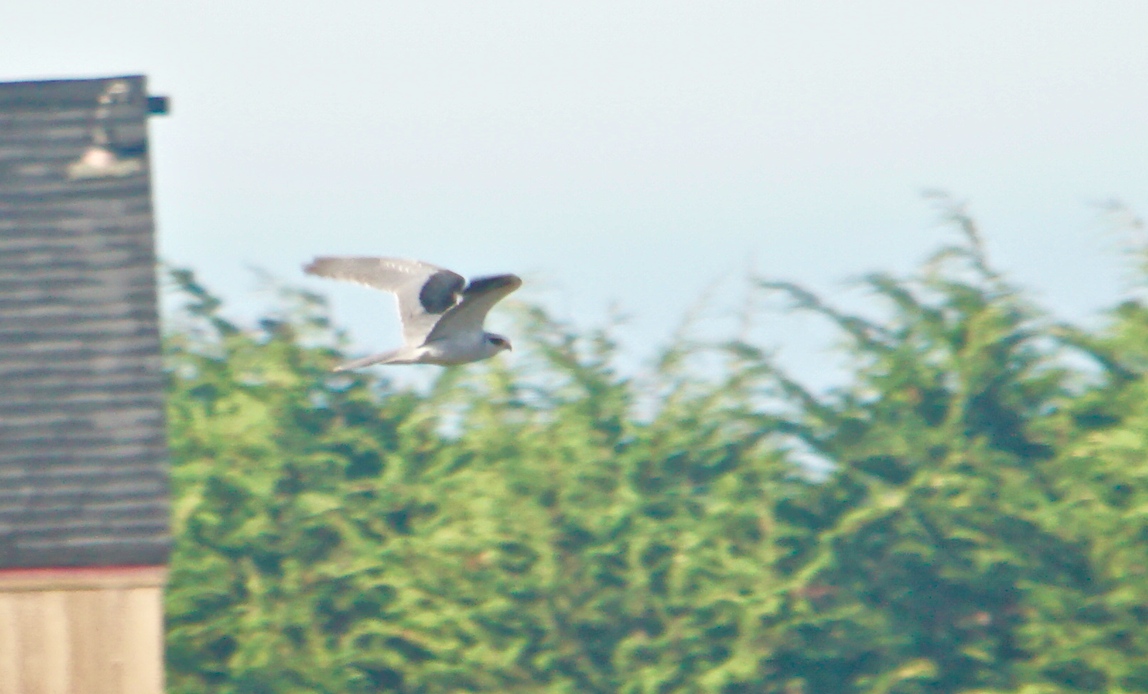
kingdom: Animalia
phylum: Chordata
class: Aves
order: Accipitriformes
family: Accipitridae
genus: Elanus
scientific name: Elanus leucurus
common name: White-tailed kite
